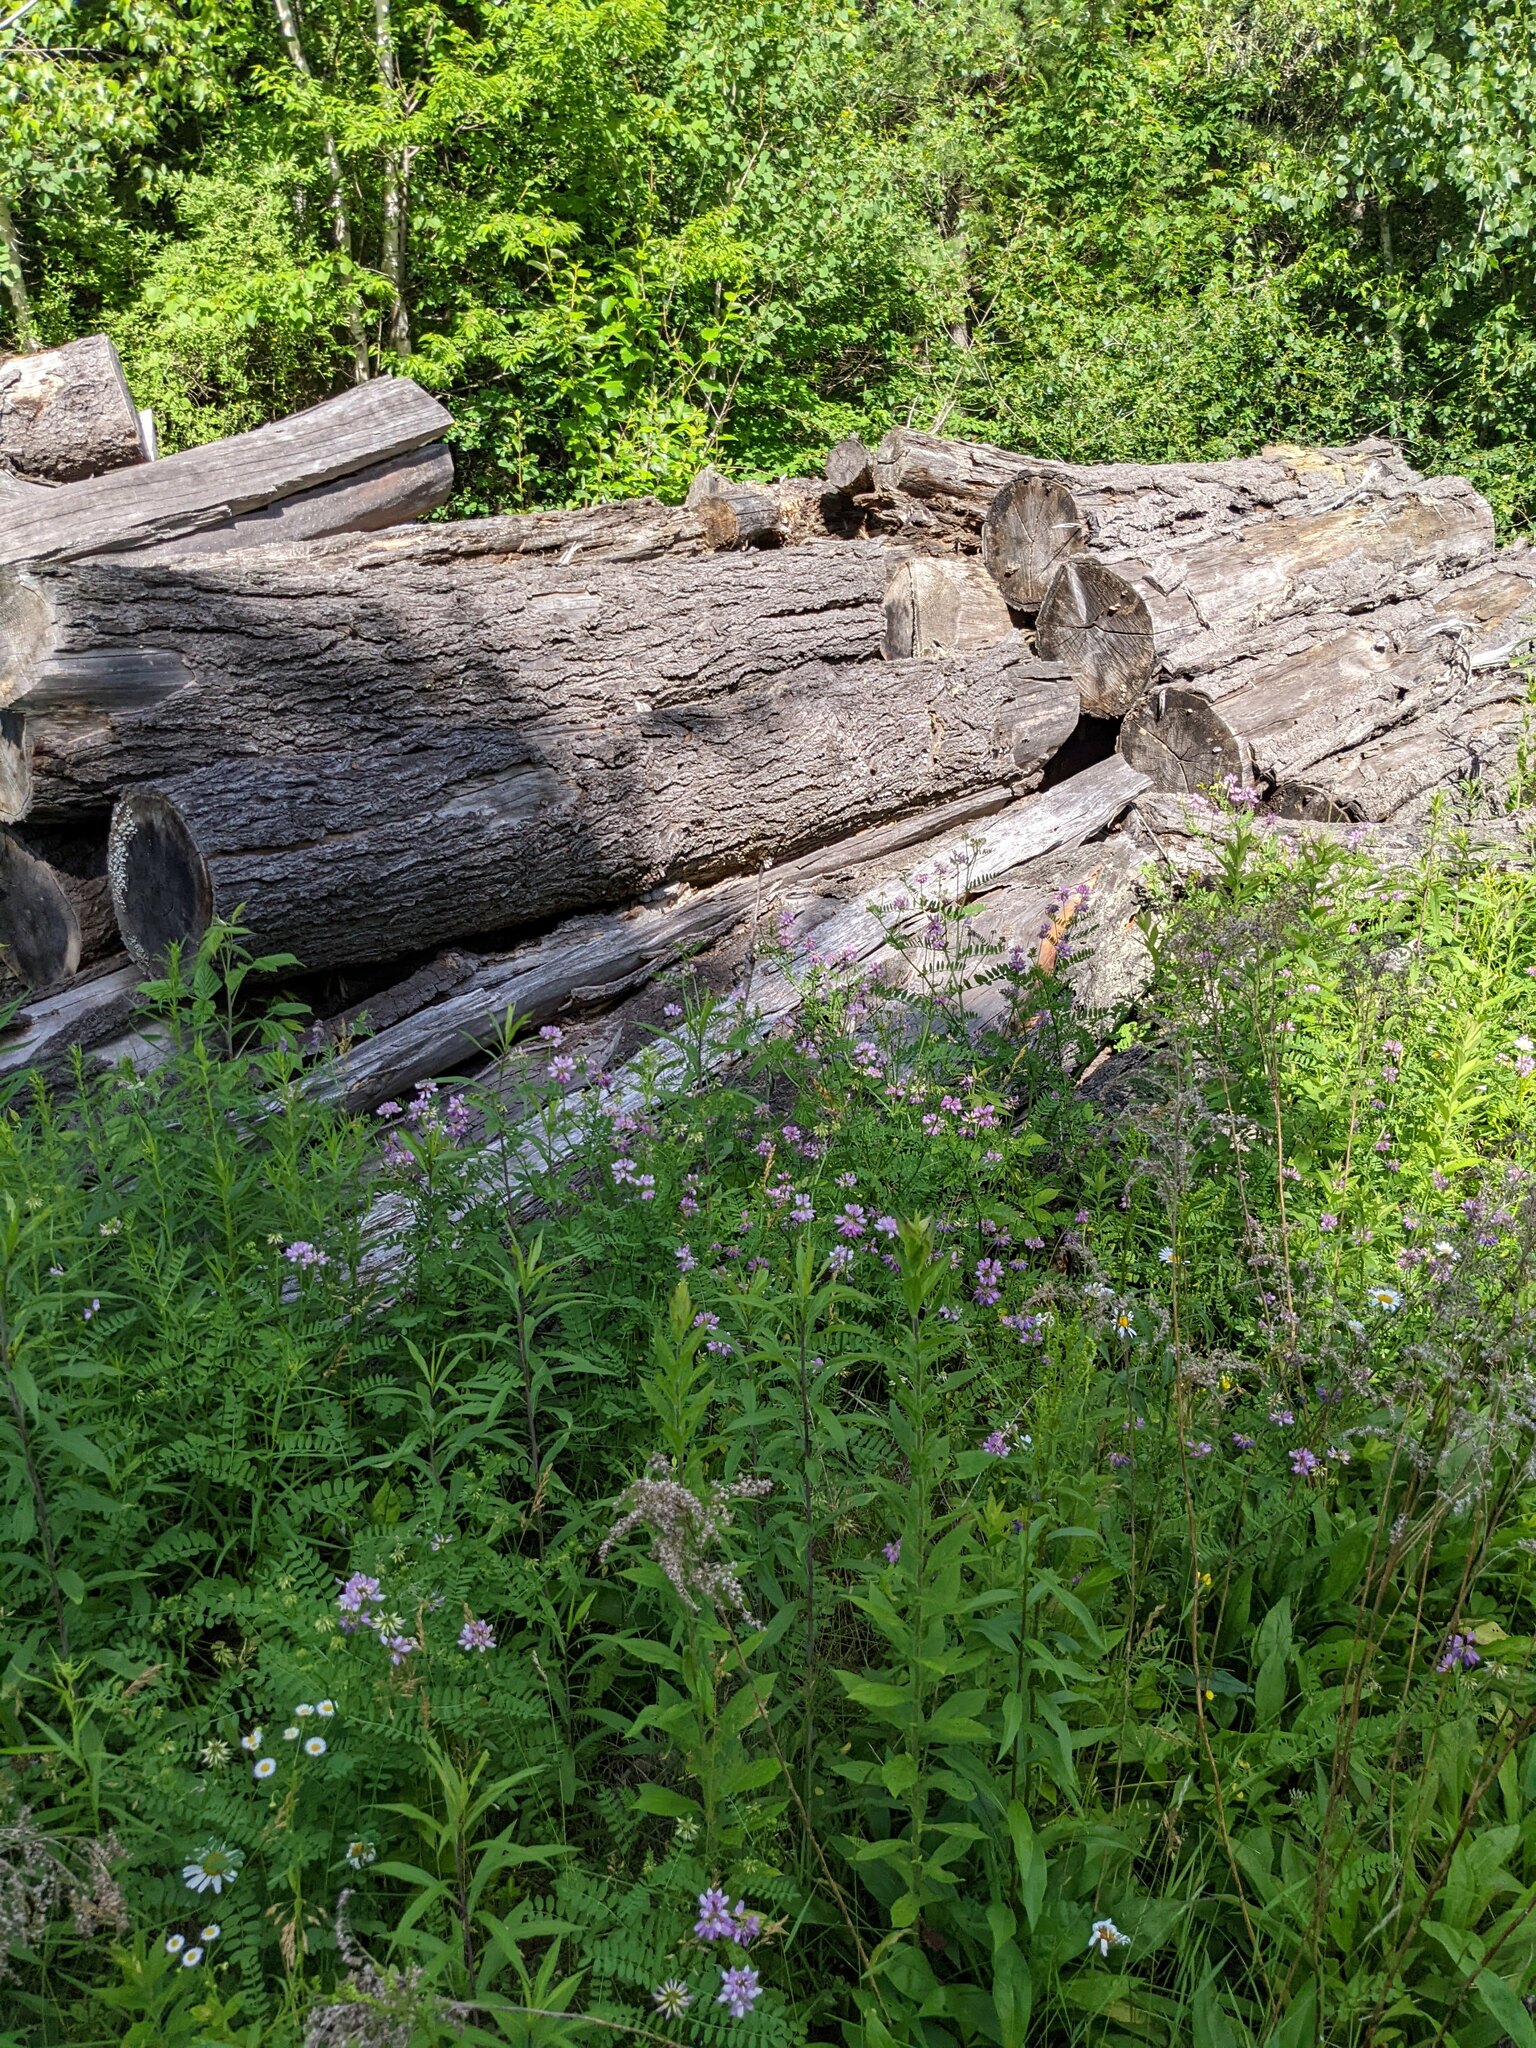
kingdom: Plantae
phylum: Tracheophyta
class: Magnoliopsida
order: Fabales
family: Fabaceae
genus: Coronilla
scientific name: Coronilla varia
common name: Crownvetch
